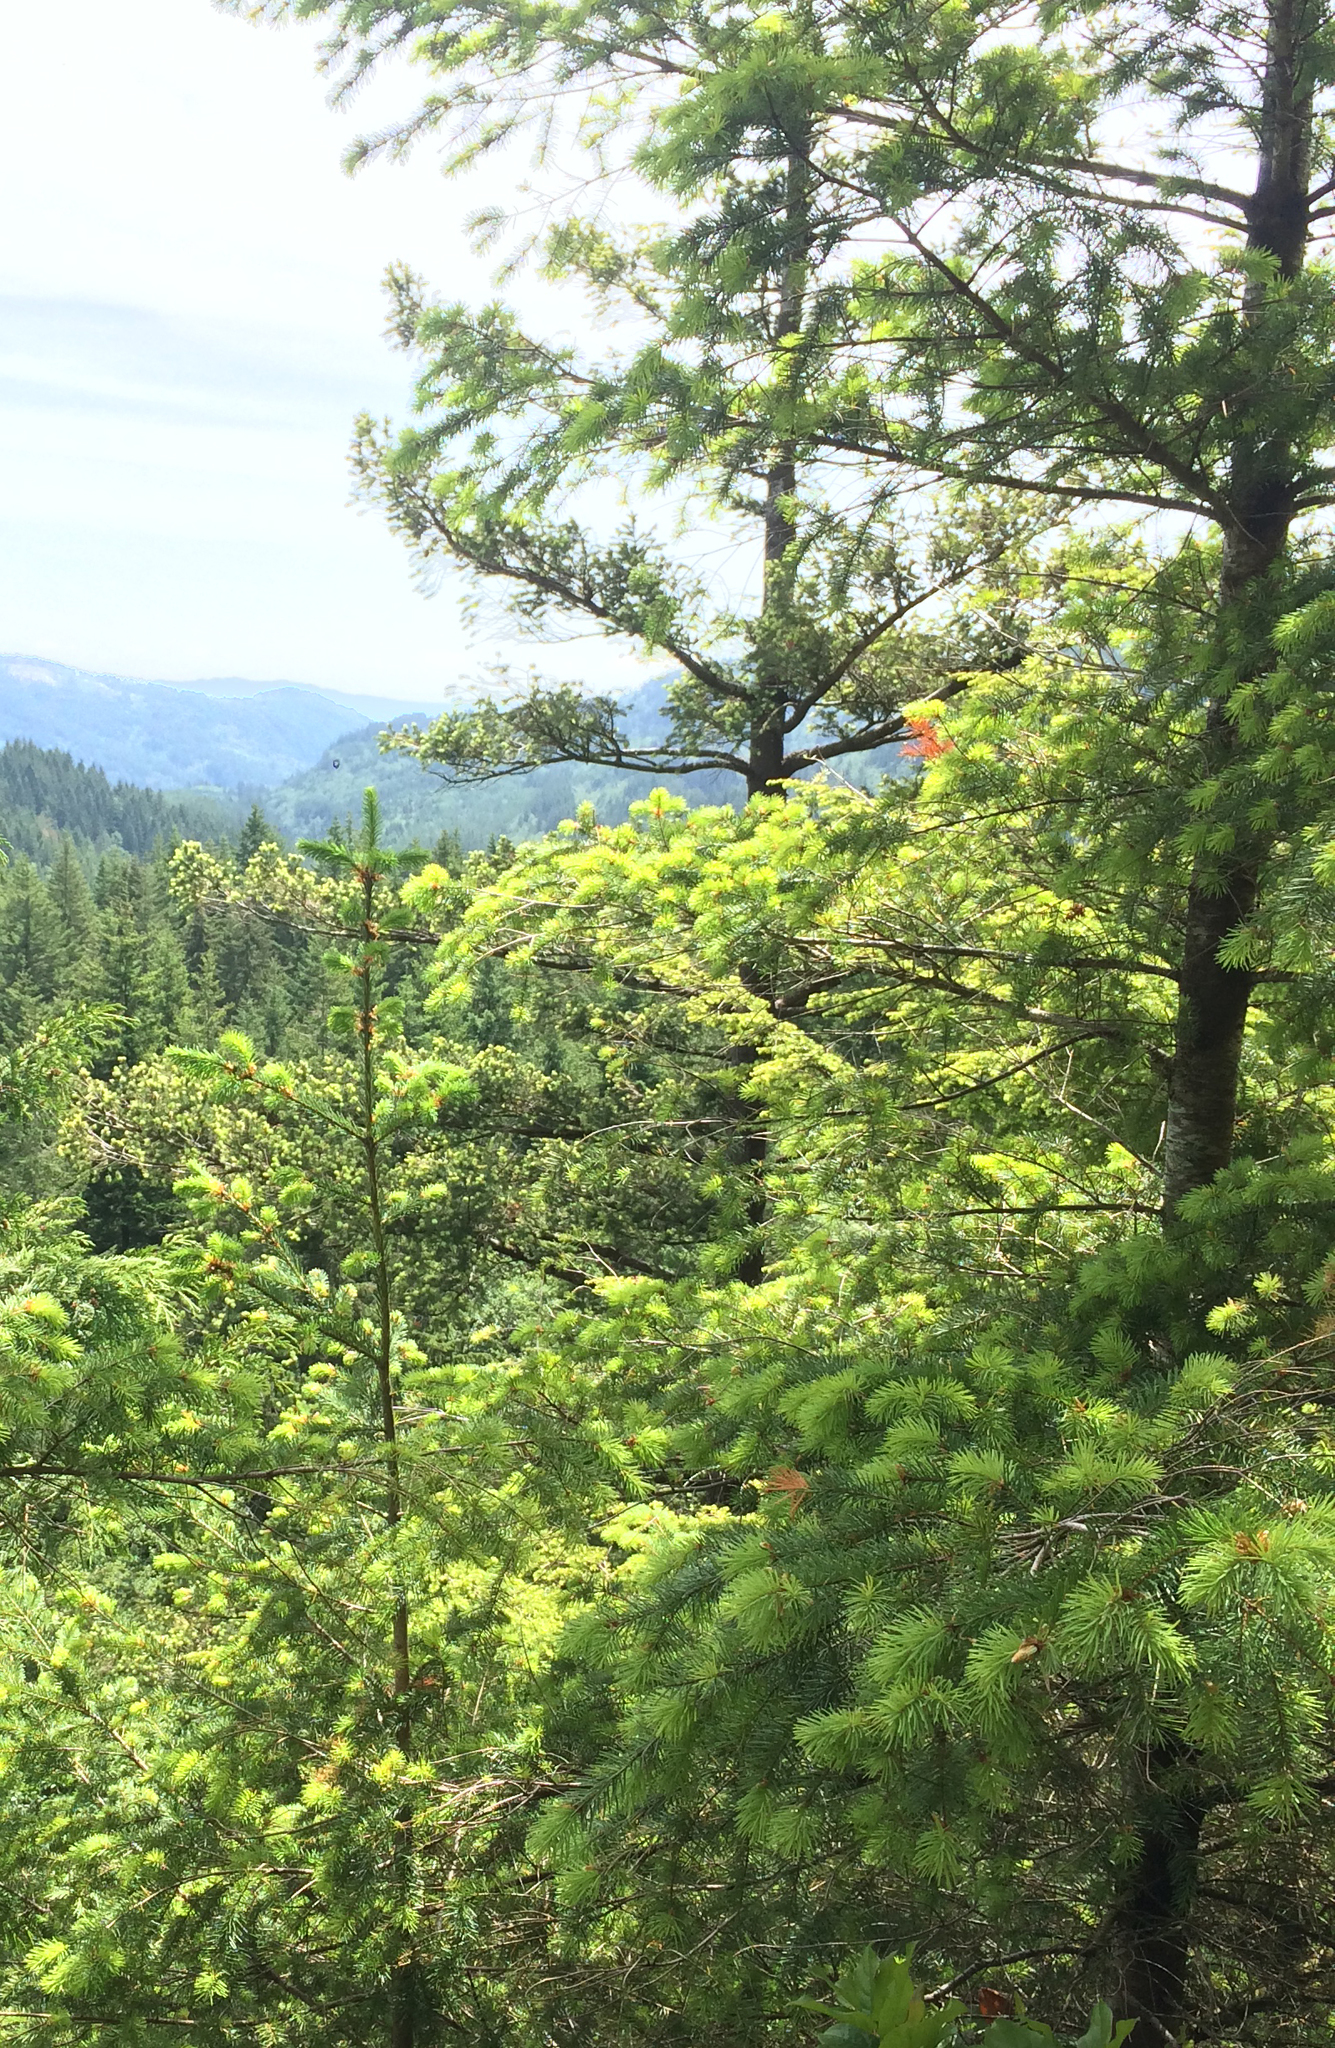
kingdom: Plantae
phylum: Tracheophyta
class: Pinopsida
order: Pinales
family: Pinaceae
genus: Pseudotsuga
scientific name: Pseudotsuga menziesii
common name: Douglas fir
